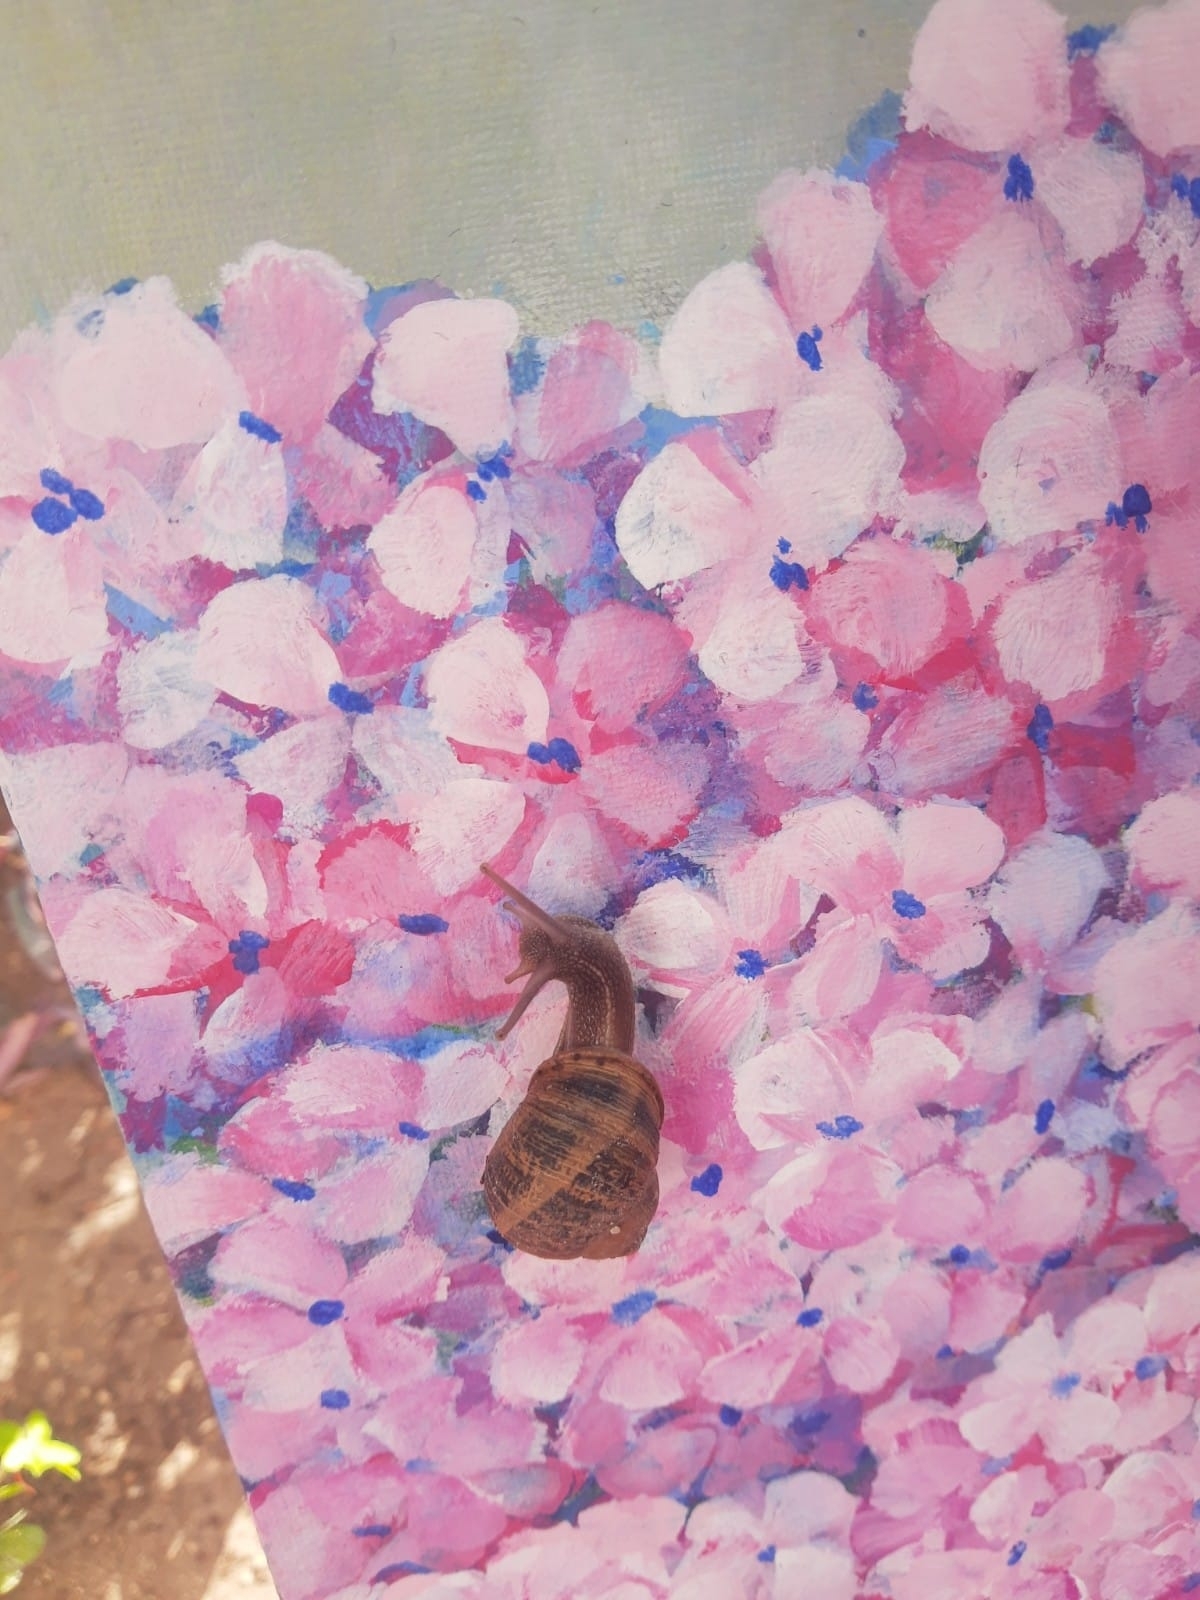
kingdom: Animalia
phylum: Mollusca
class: Gastropoda
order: Stylommatophora
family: Helicidae
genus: Cornu
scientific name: Cornu aspersum
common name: Brown garden snail
